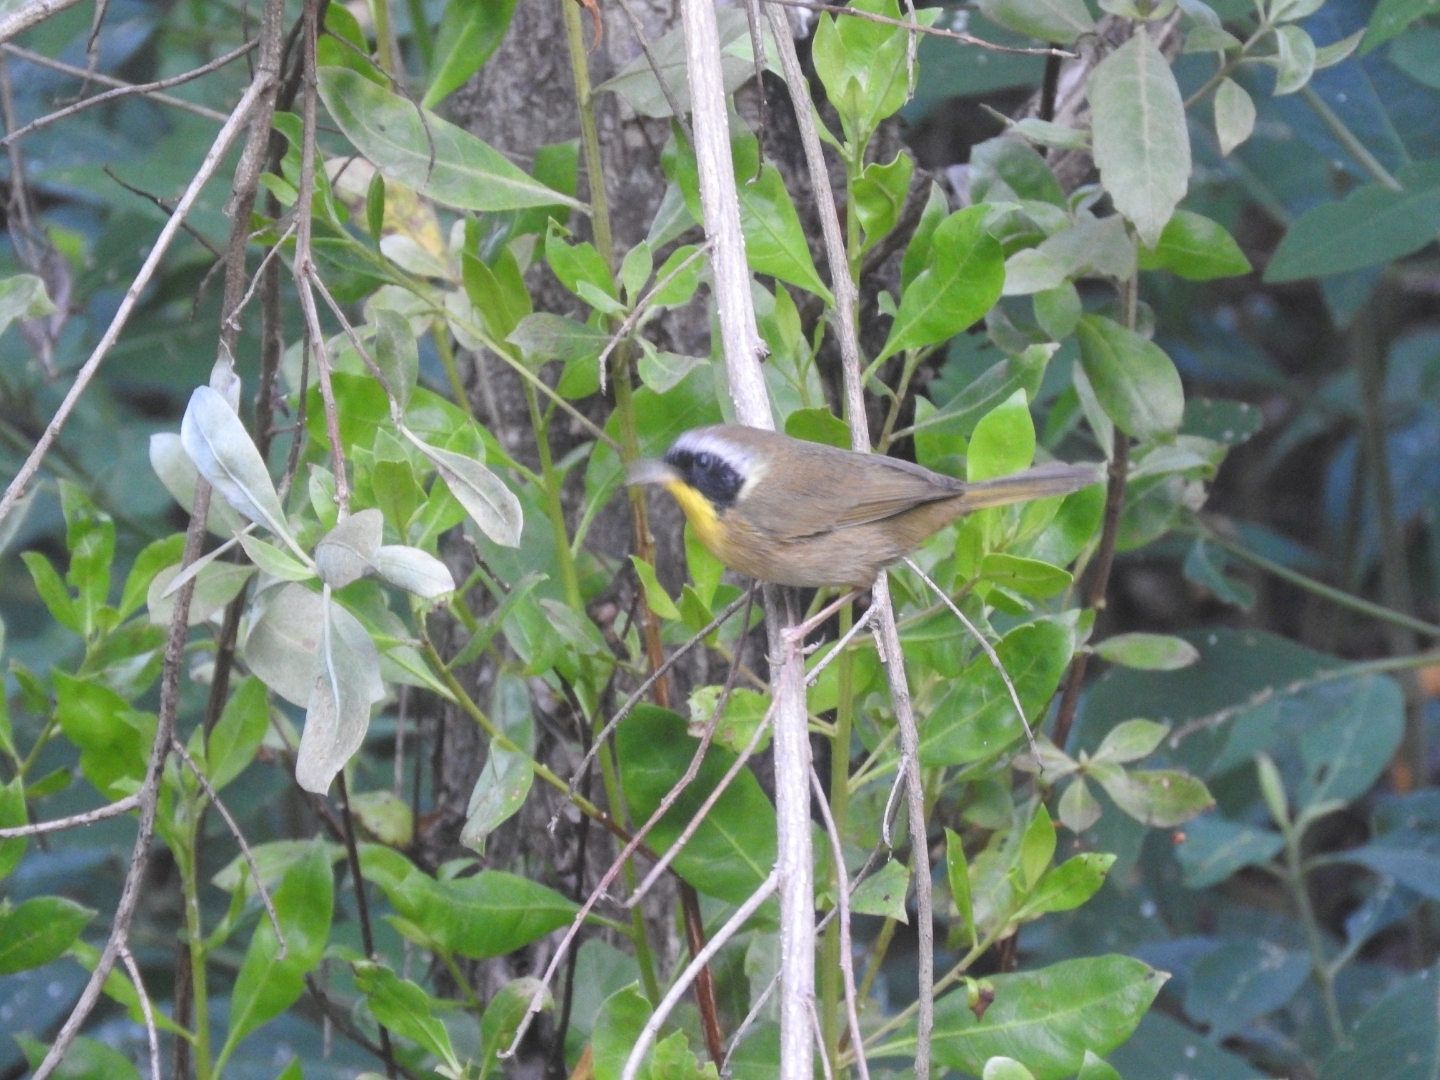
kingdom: Animalia
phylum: Chordata
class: Aves
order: Passeriformes
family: Parulidae
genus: Geothlypis
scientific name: Geothlypis trichas
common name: Common yellowthroat
